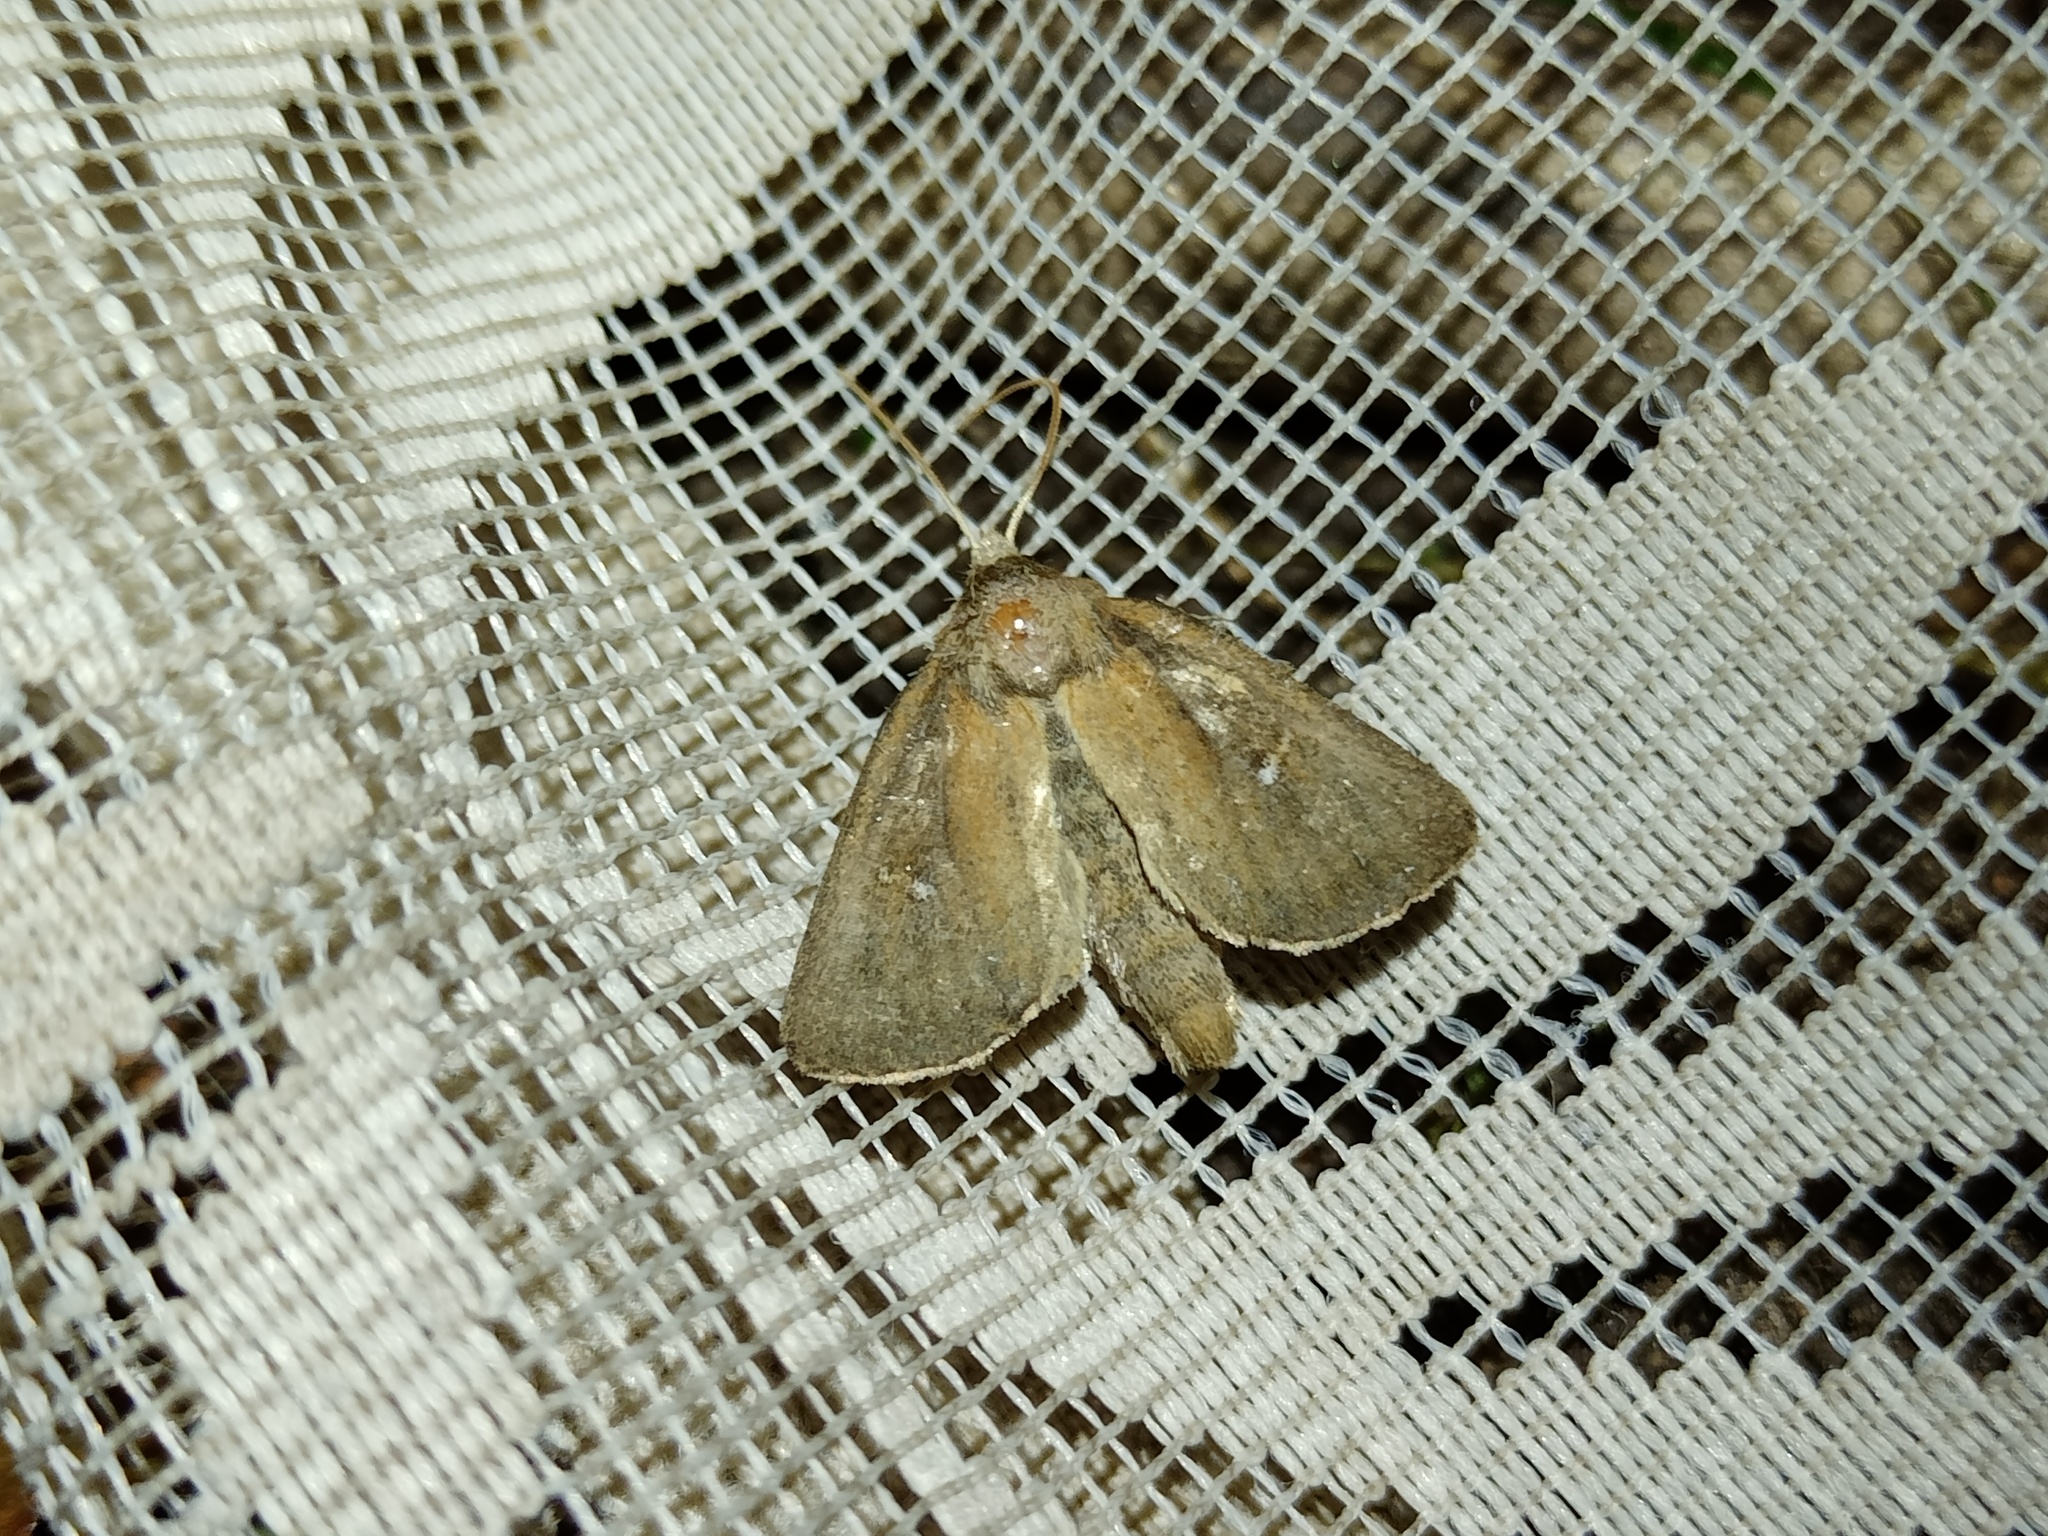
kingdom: Animalia
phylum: Arthropoda
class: Insecta
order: Lepidoptera
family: Noctuidae
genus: Lenisa
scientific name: Lenisa geminipuncta
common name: Twin-spotted wainscot
